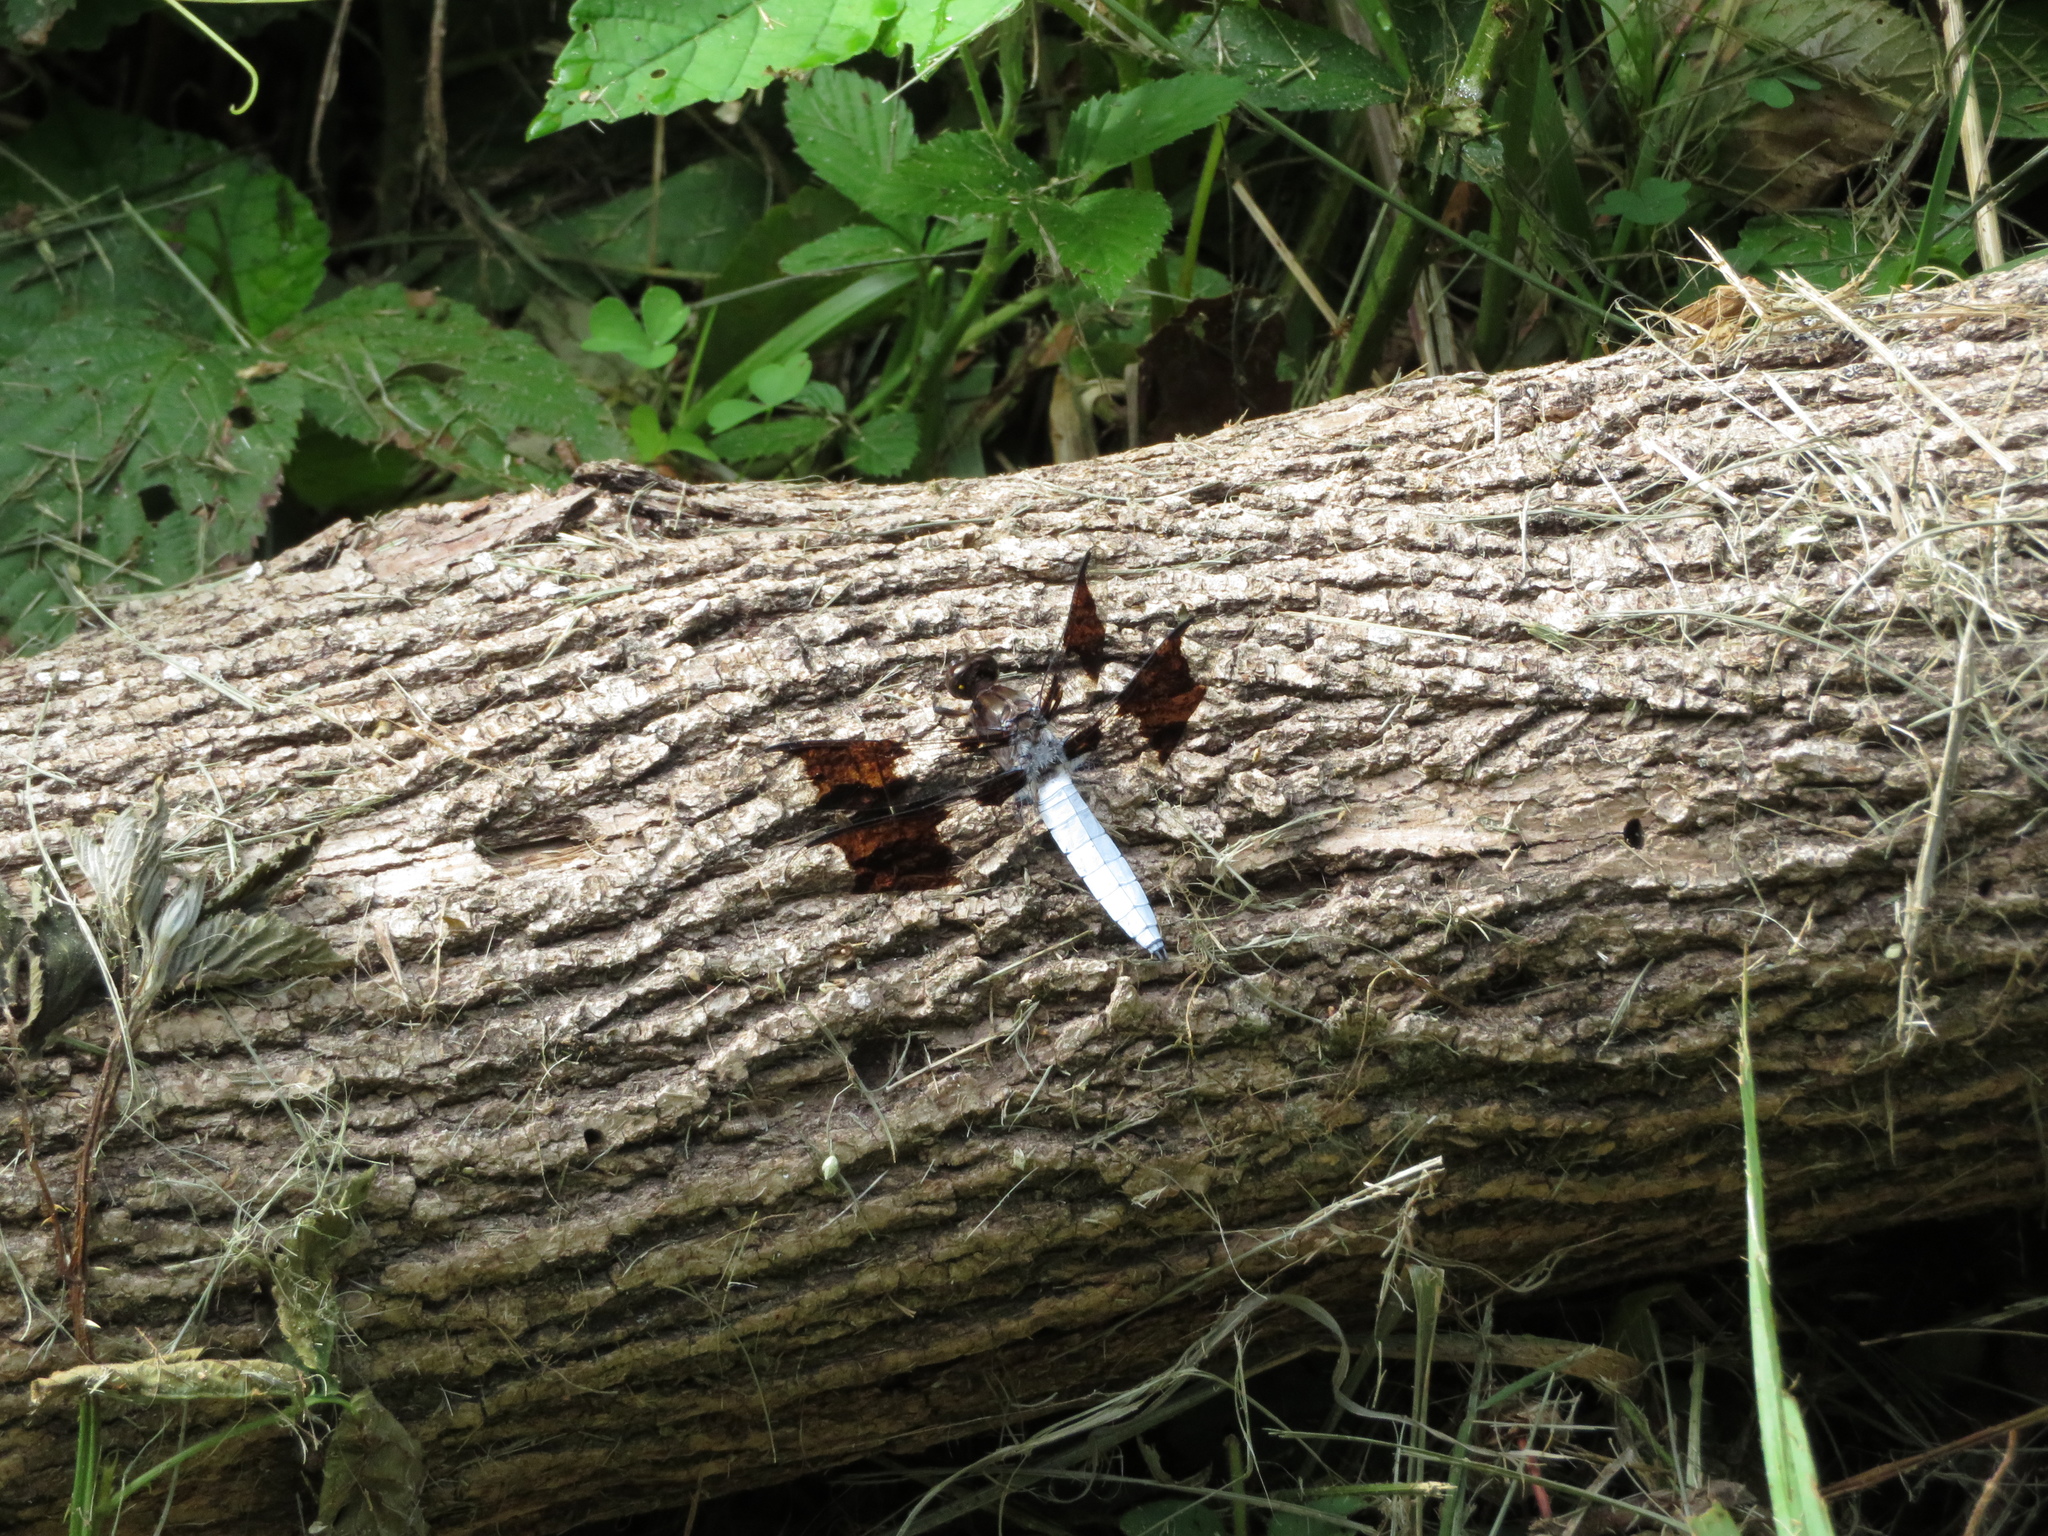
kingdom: Animalia
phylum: Arthropoda
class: Insecta
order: Odonata
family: Libellulidae
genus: Plathemis
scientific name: Plathemis lydia
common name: Common whitetail
